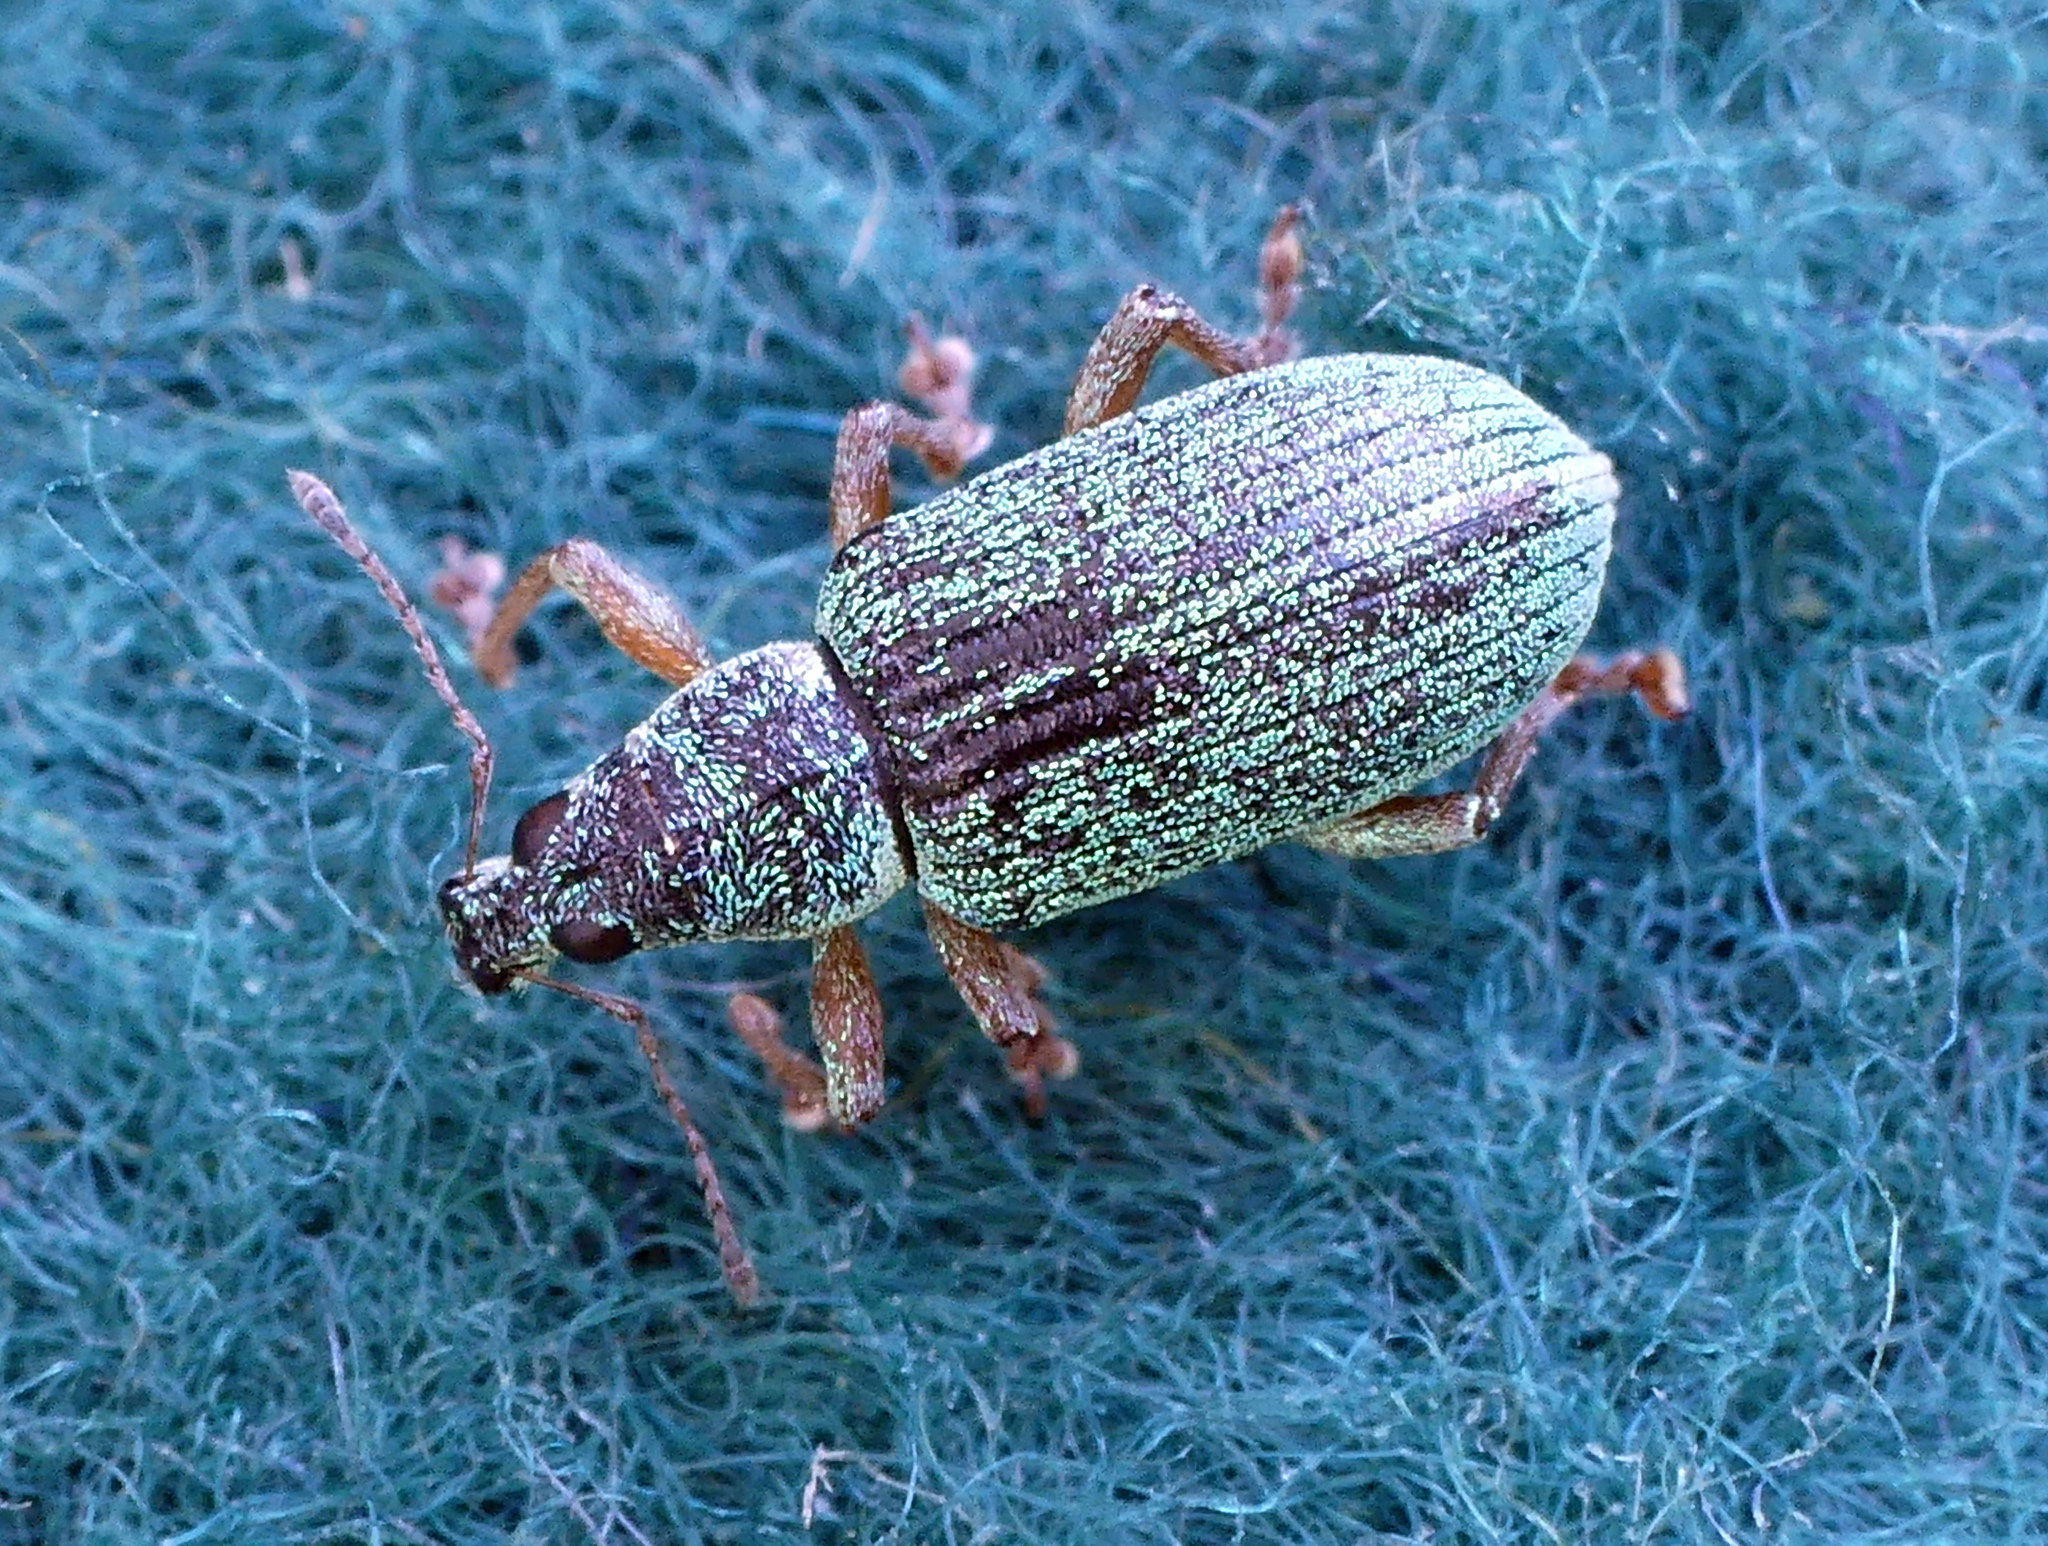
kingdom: Animalia
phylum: Arthropoda
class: Insecta
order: Coleoptera
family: Curculionidae
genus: Polydrusus
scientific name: Polydrusus formosus
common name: Weevil
